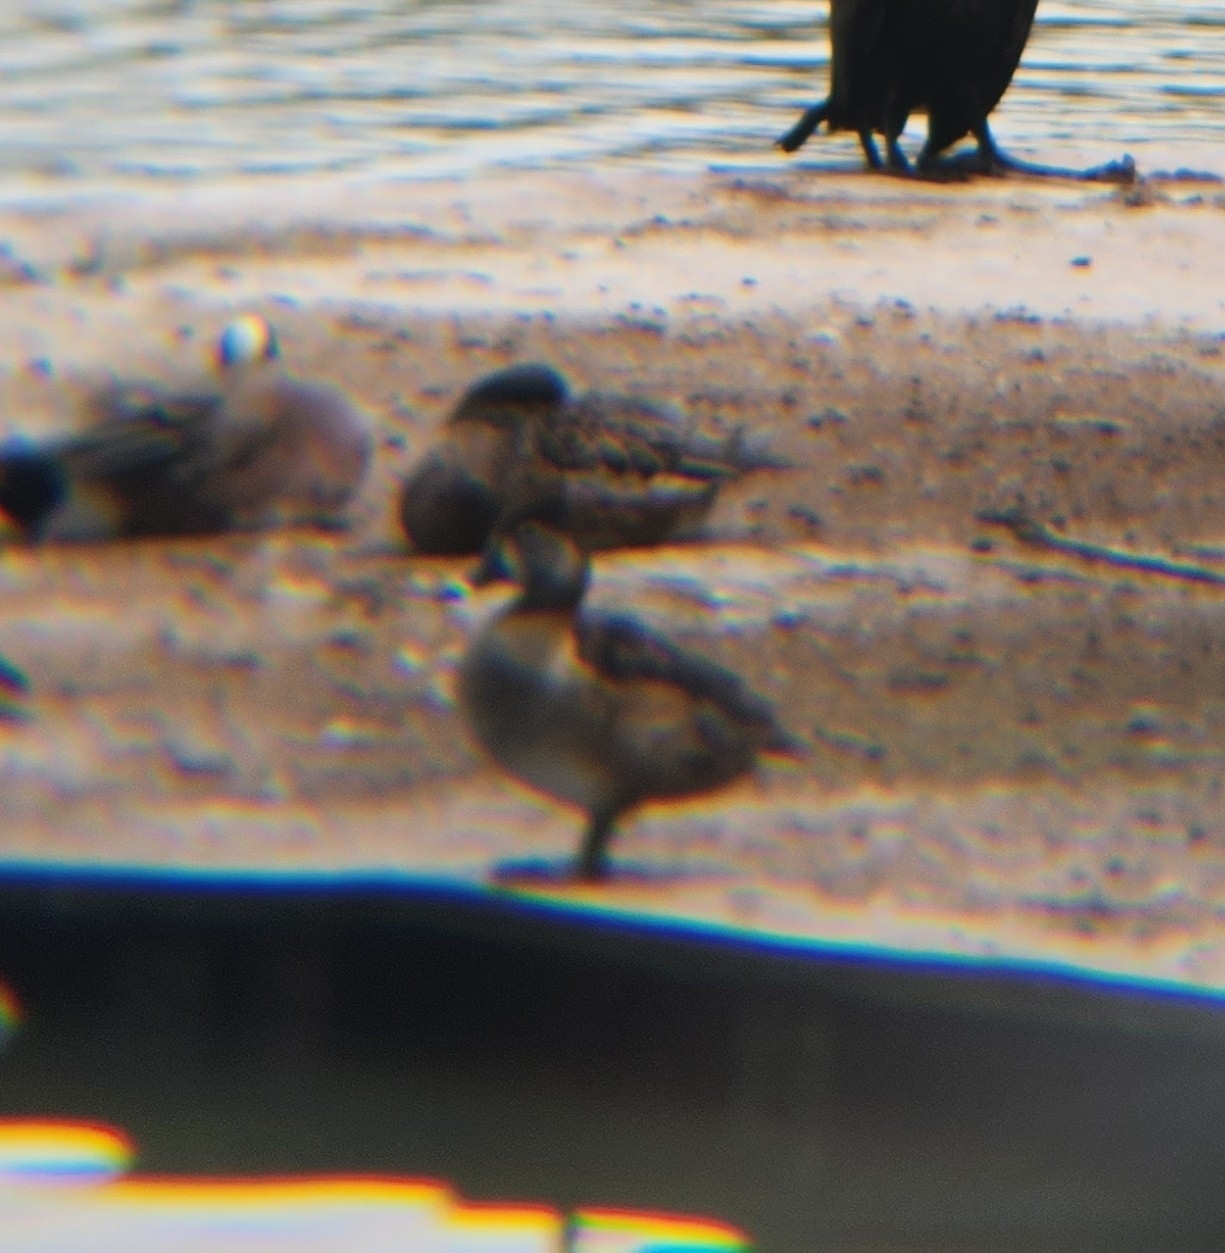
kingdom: Animalia
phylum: Chordata
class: Aves
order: Anseriformes
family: Anatidae
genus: Aythya
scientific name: Aythya collaris
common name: Ring-necked duck
